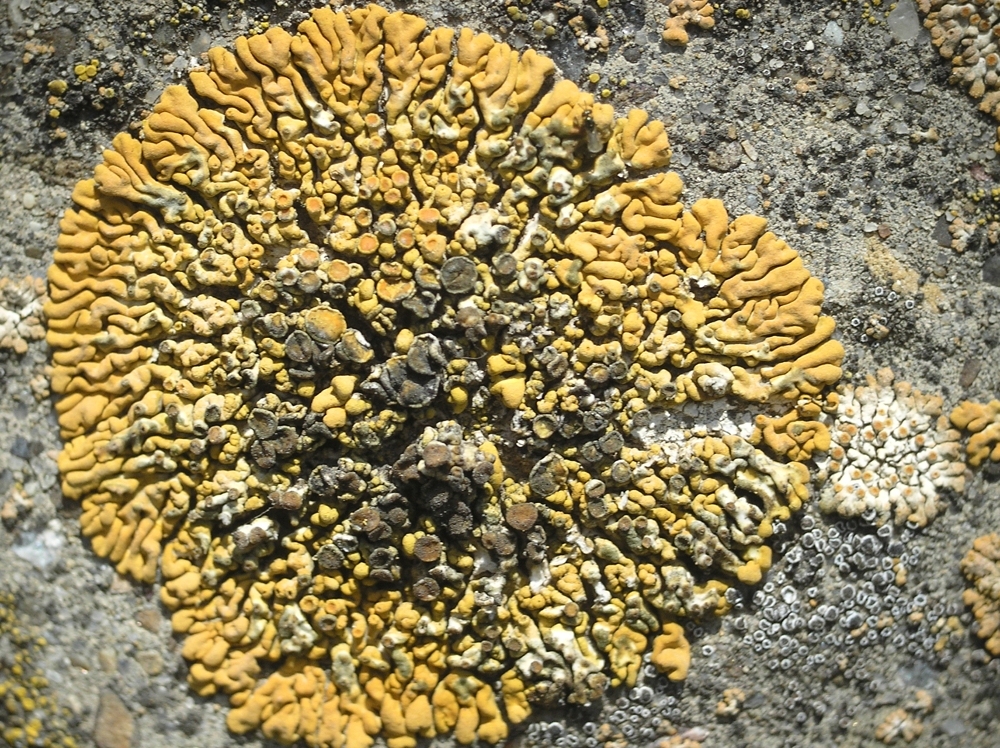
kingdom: Fungi
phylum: Ascomycota
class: Lecanoromycetes
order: Teloschistales
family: Teloschistaceae
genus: Calogaya
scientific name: Calogaya saxicola
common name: Rock jewel lichen
